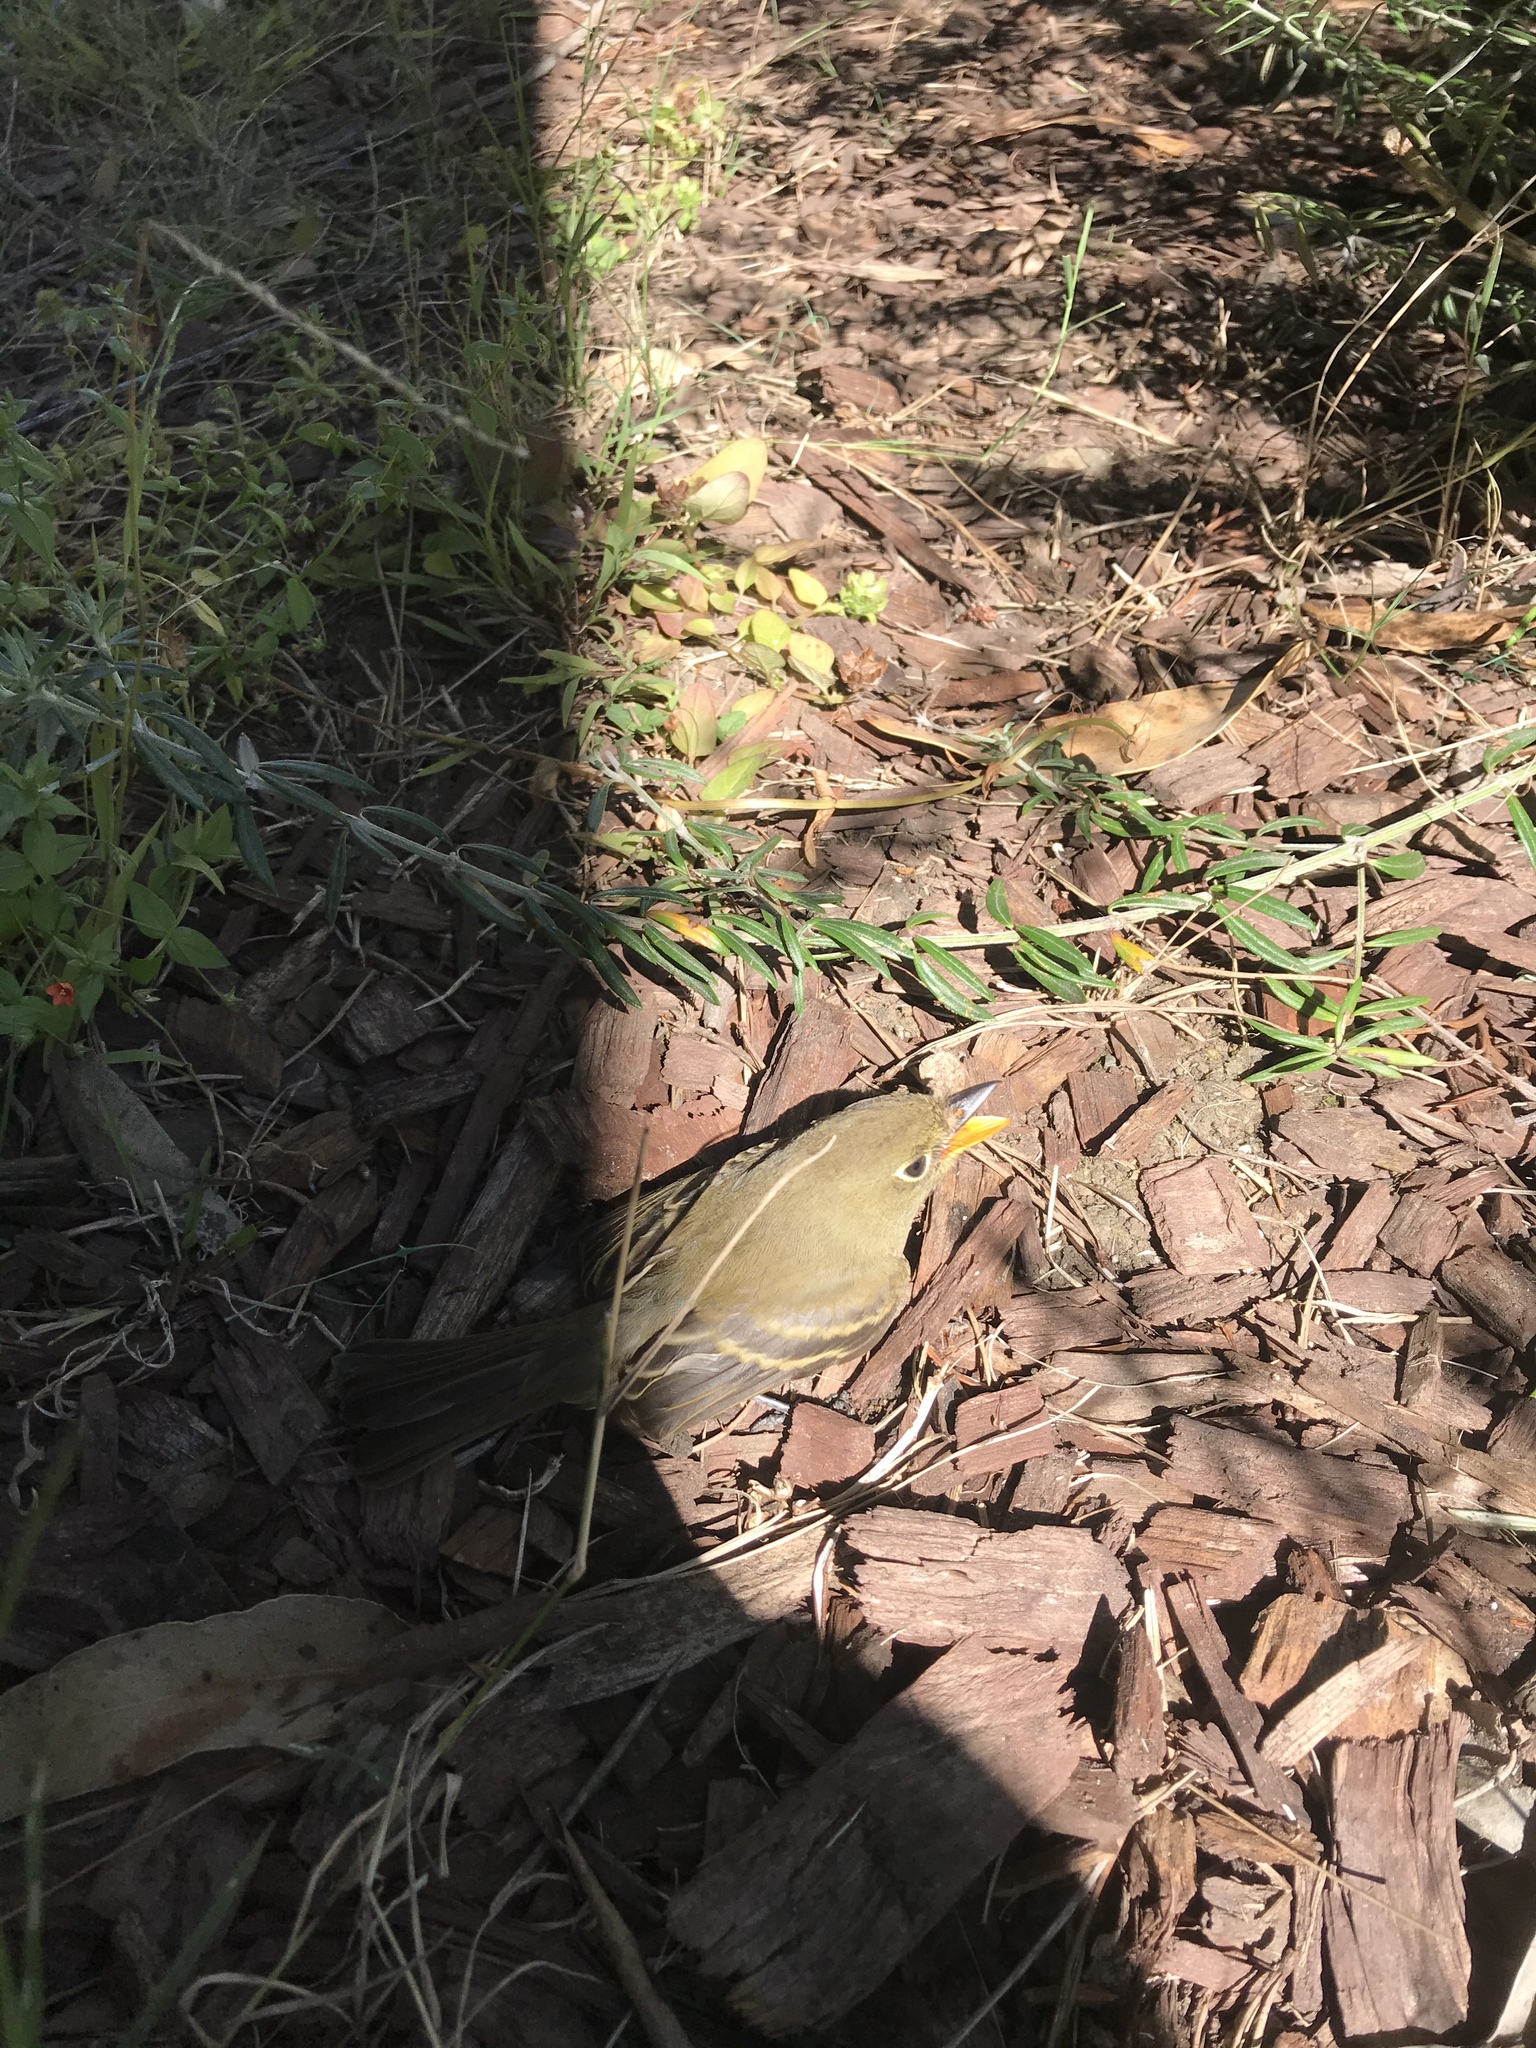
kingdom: Animalia
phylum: Chordata
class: Aves
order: Passeriformes
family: Tyrannidae
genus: Empidonax
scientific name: Empidonax difficilis
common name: Pacific-slope flycatcher
